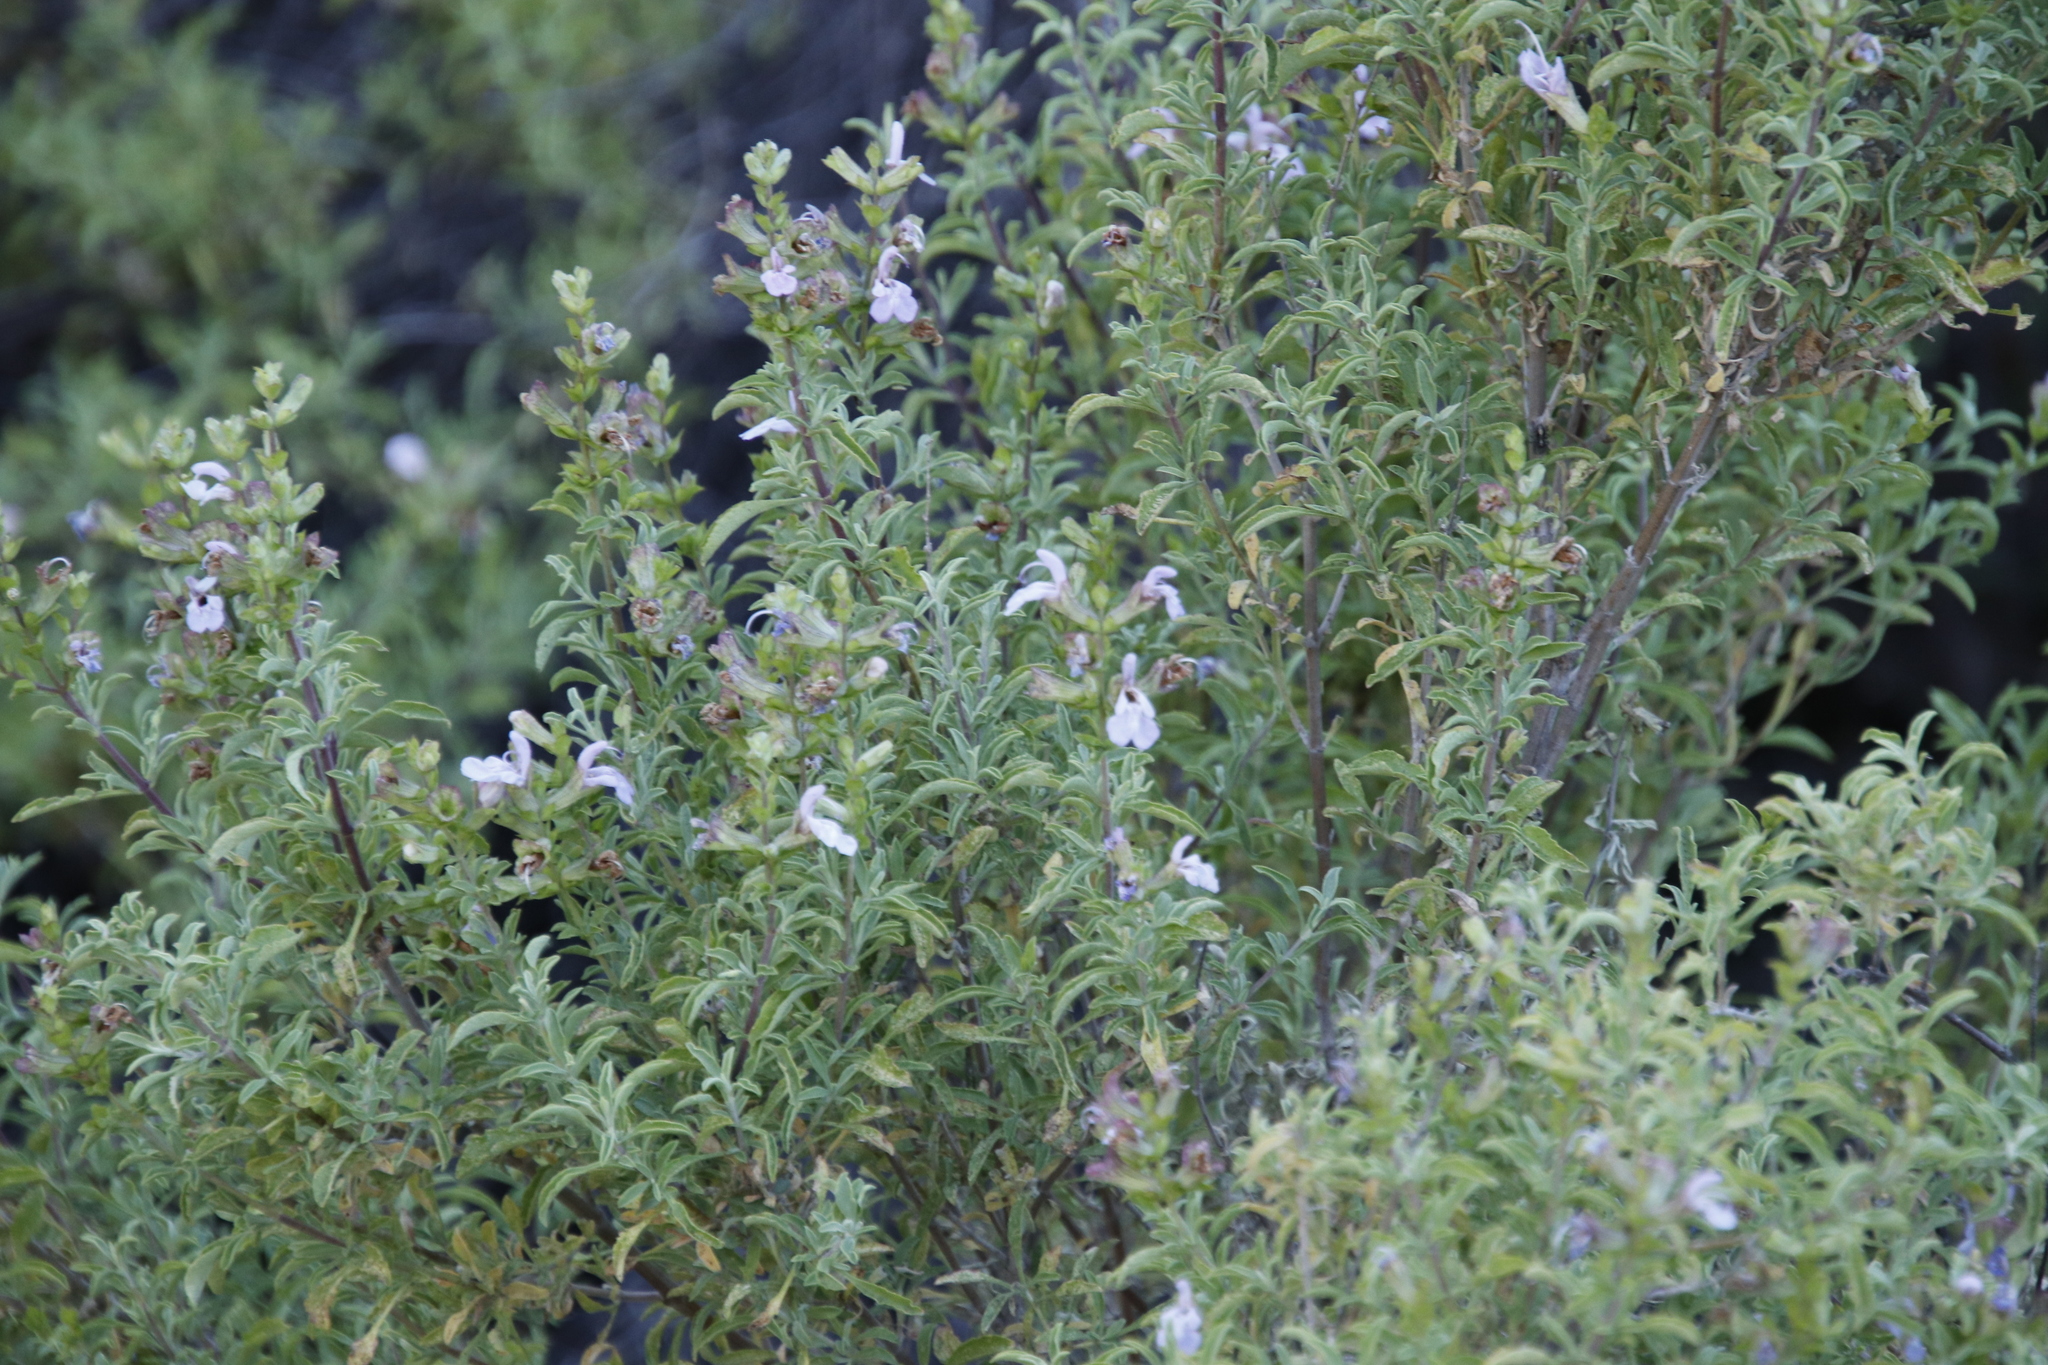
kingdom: Plantae
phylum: Tracheophyta
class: Magnoliopsida
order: Lamiales
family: Lamiaceae
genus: Salvia
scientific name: Salvia dentata
